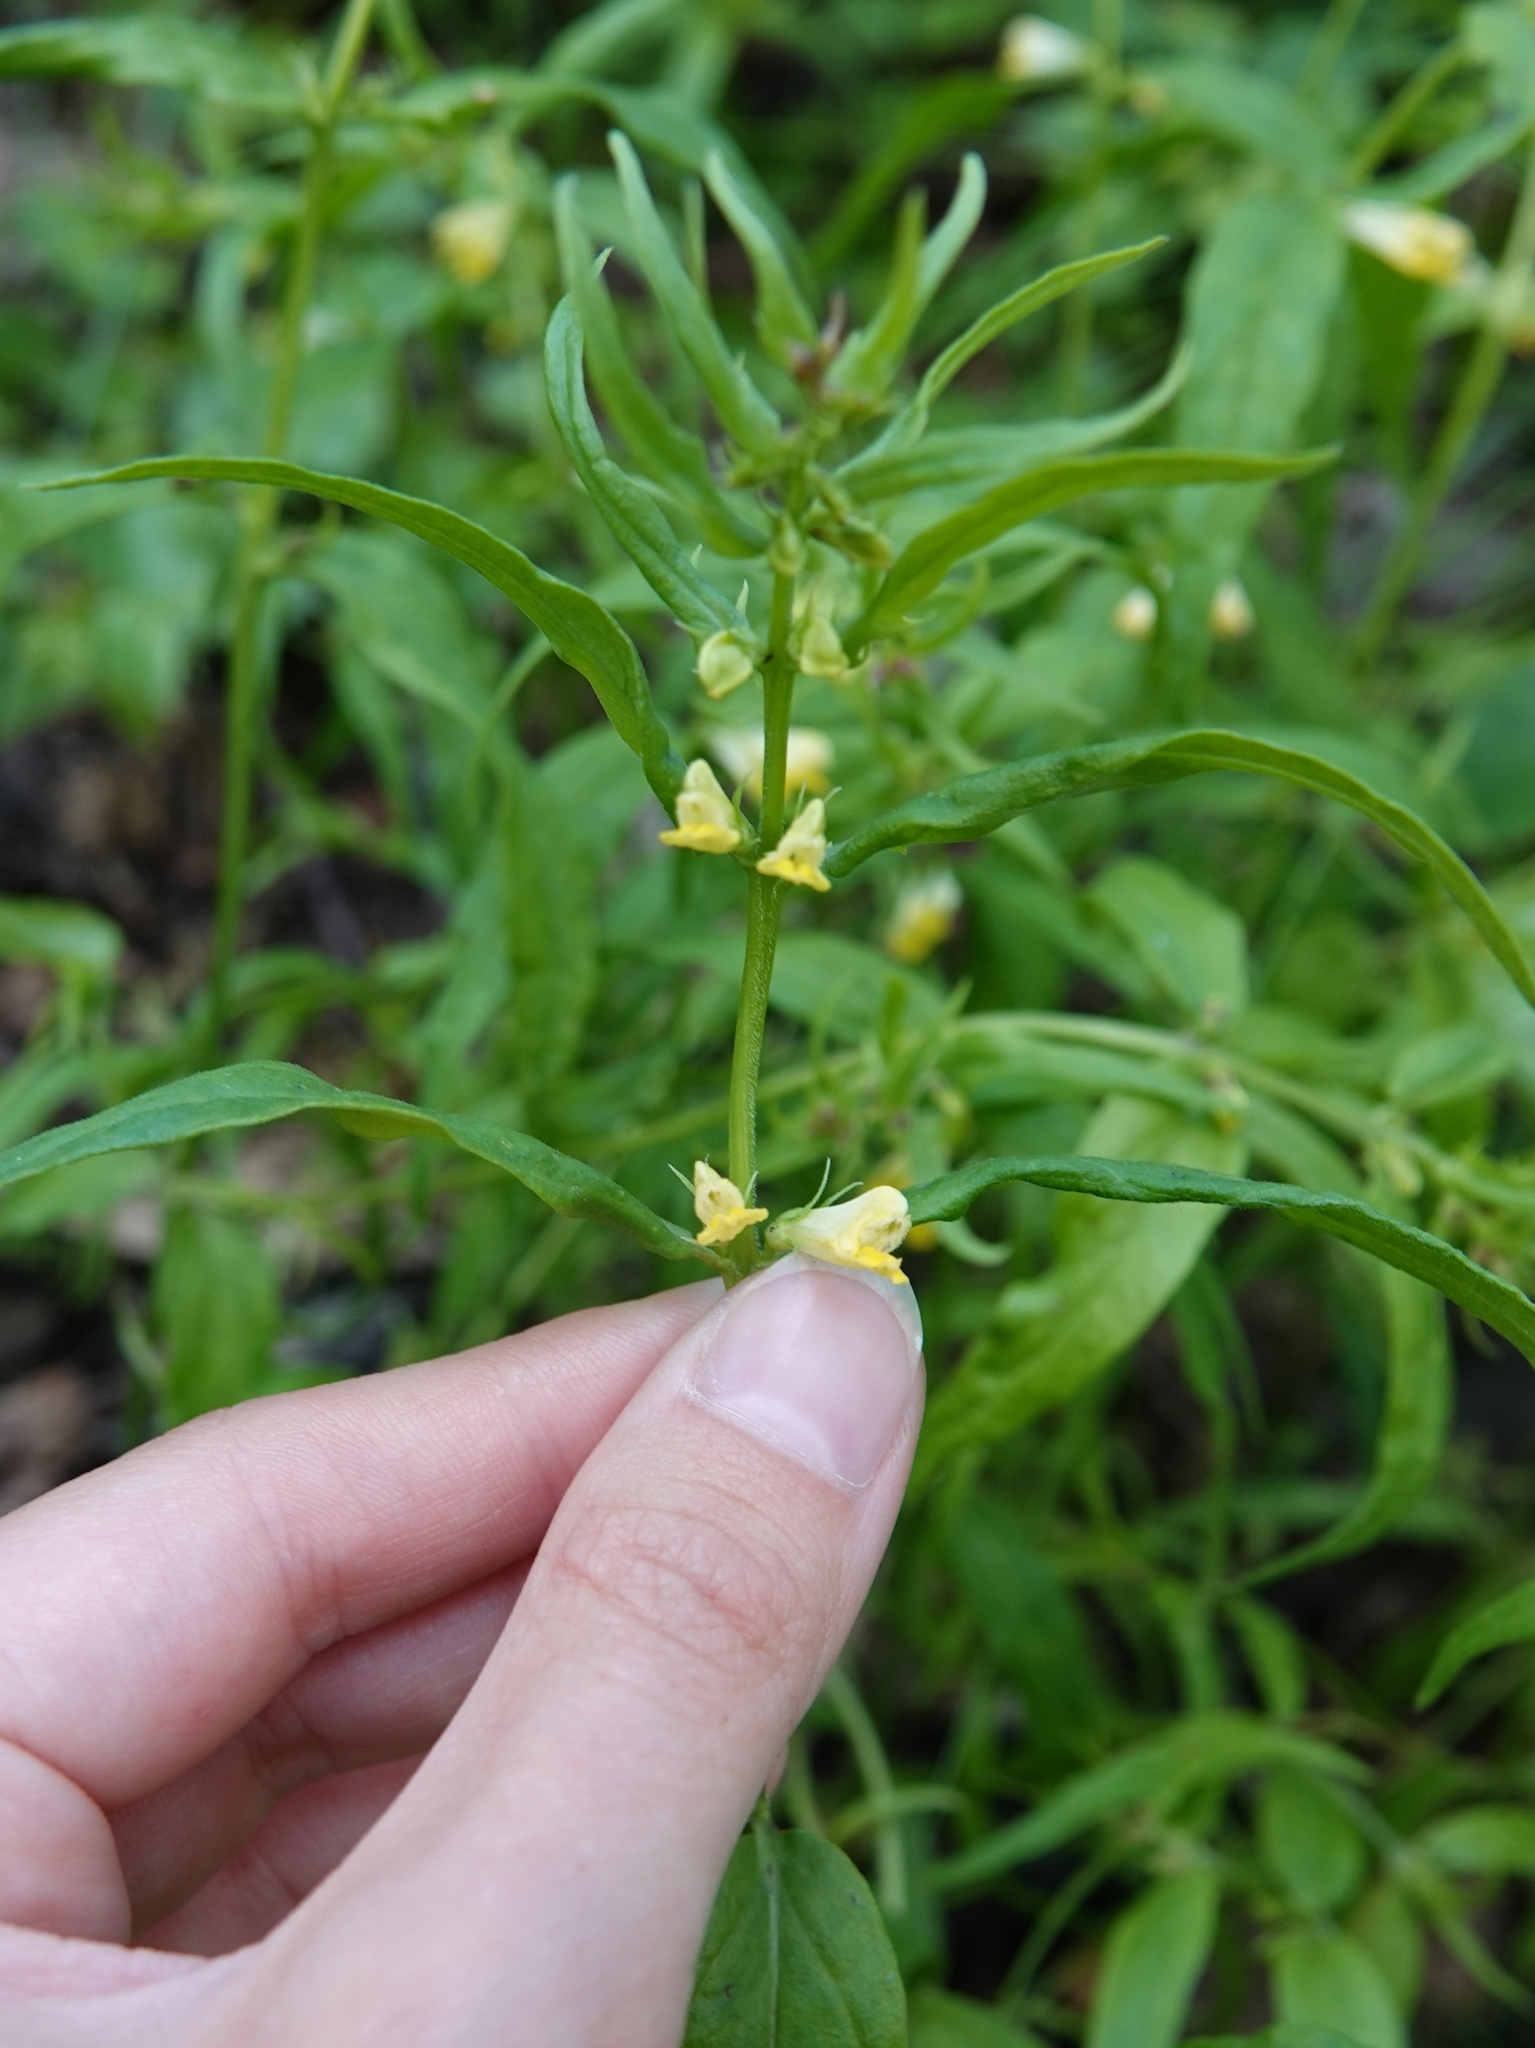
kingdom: Plantae
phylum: Tracheophyta
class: Magnoliopsida
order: Lamiales
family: Orobanchaceae
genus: Melampyrum
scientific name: Melampyrum pratense
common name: Common cow-wheat
